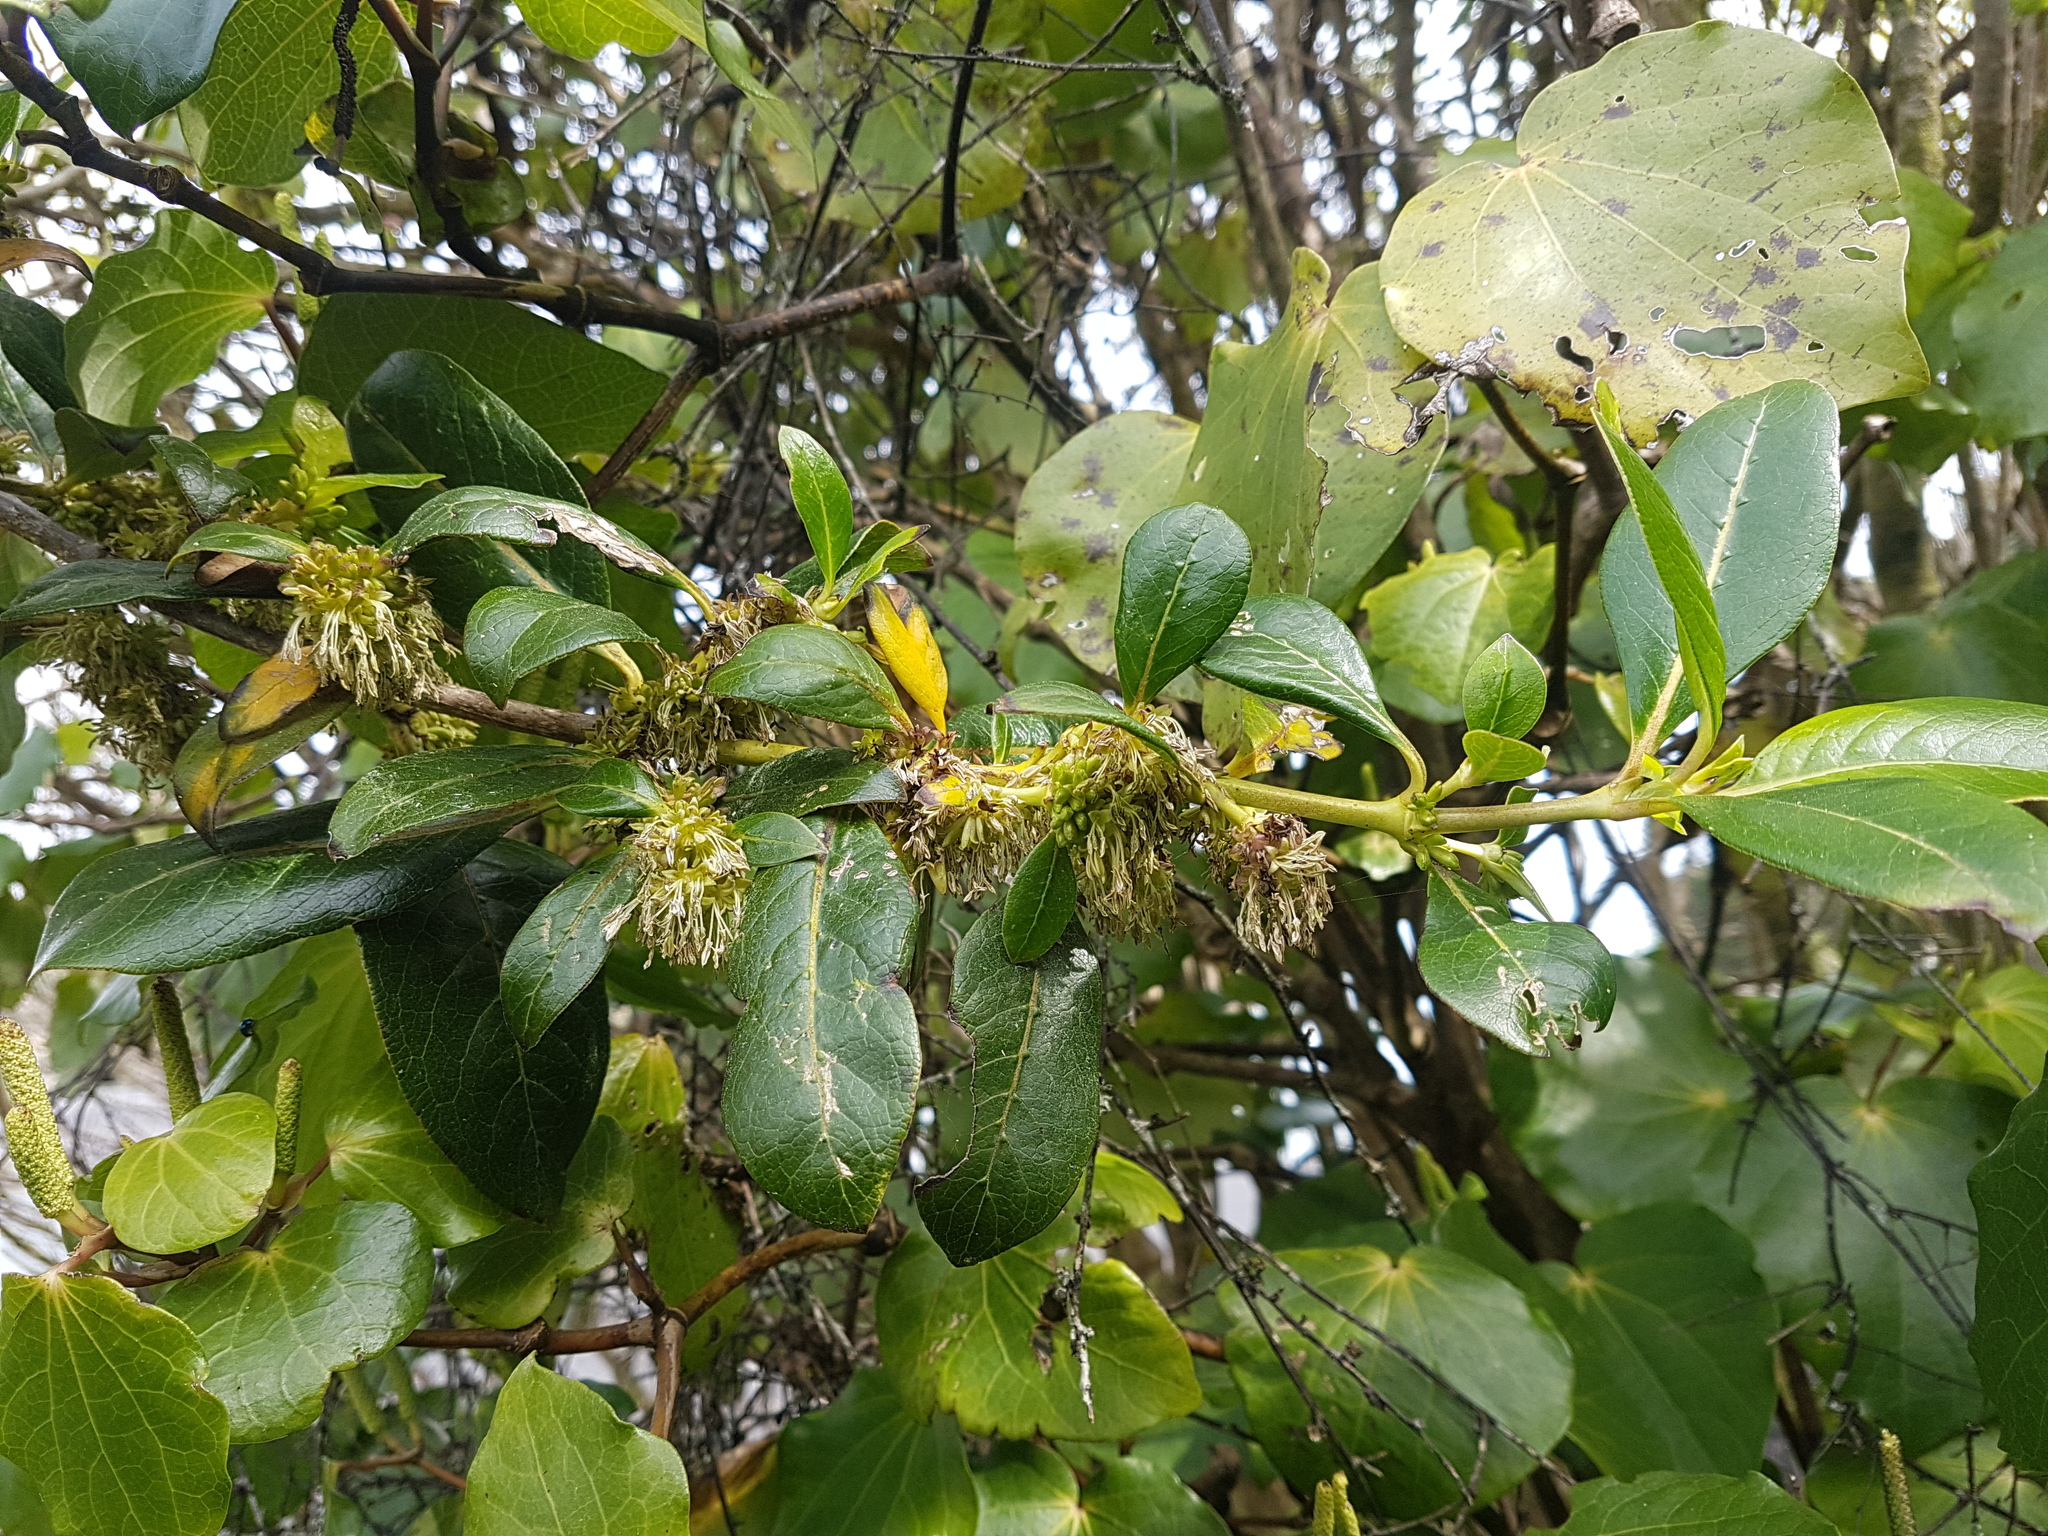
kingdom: Plantae
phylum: Tracheophyta
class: Magnoliopsida
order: Gentianales
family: Rubiaceae
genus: Coprosma
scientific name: Coprosma robusta
